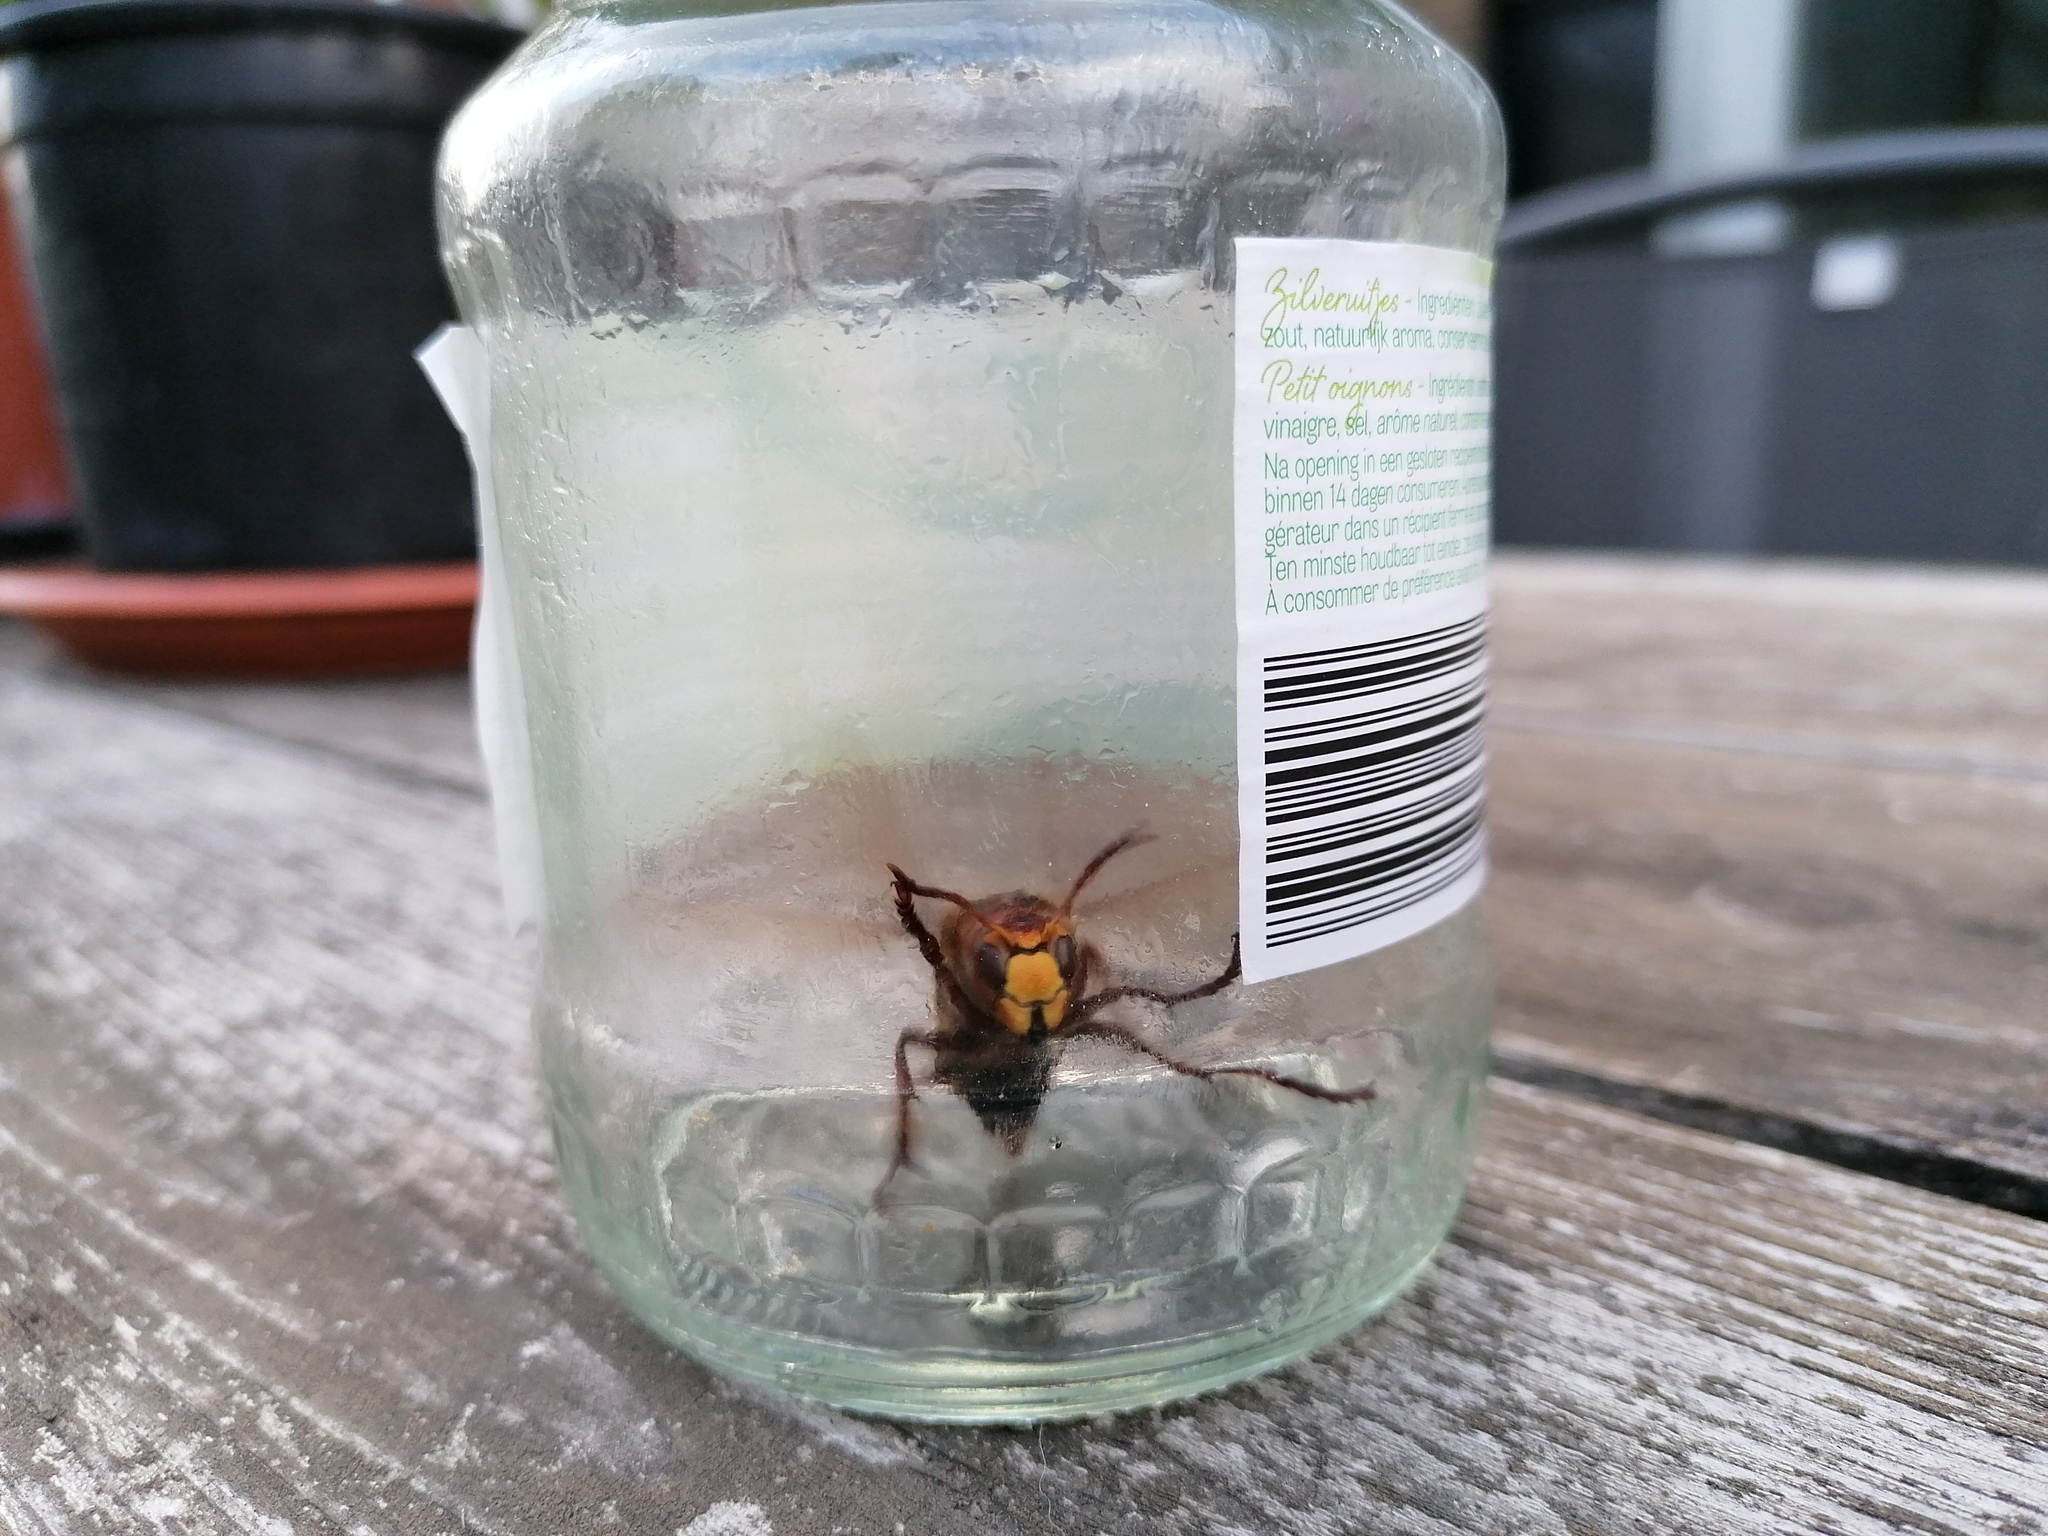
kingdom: Animalia
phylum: Arthropoda
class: Insecta
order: Hymenoptera
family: Vespidae
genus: Vespa
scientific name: Vespa crabro
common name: Hornet
